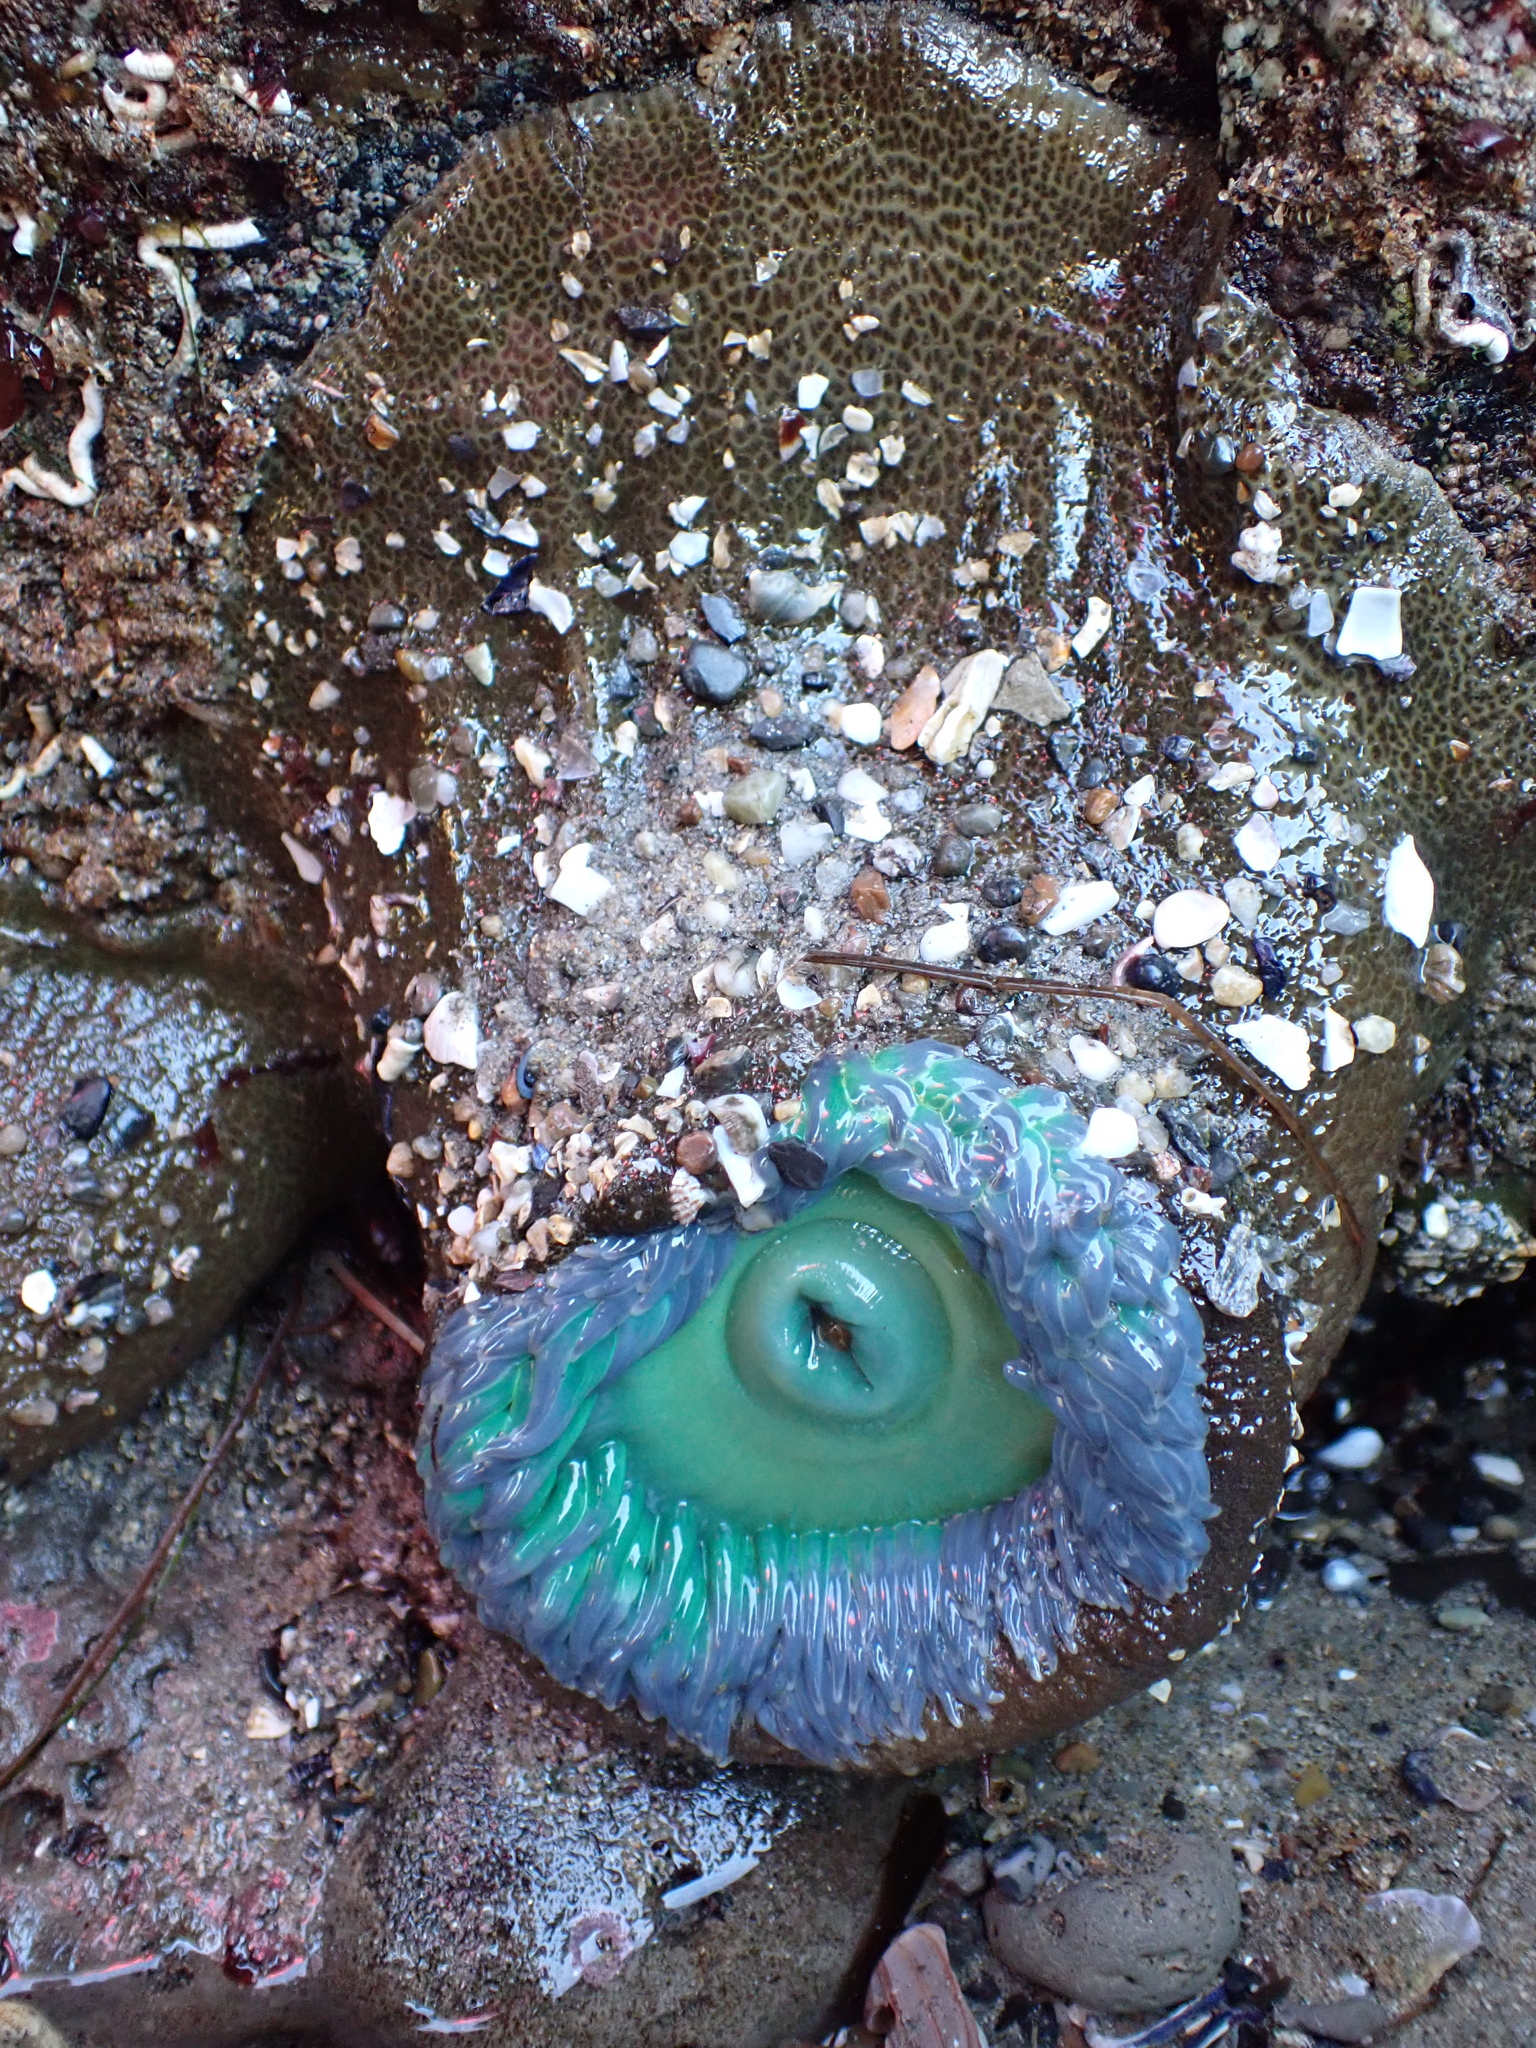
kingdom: Animalia
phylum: Cnidaria
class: Anthozoa
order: Actiniaria
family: Actiniidae
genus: Anthopleura
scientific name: Anthopleura xanthogrammica
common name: Giant green anemone
